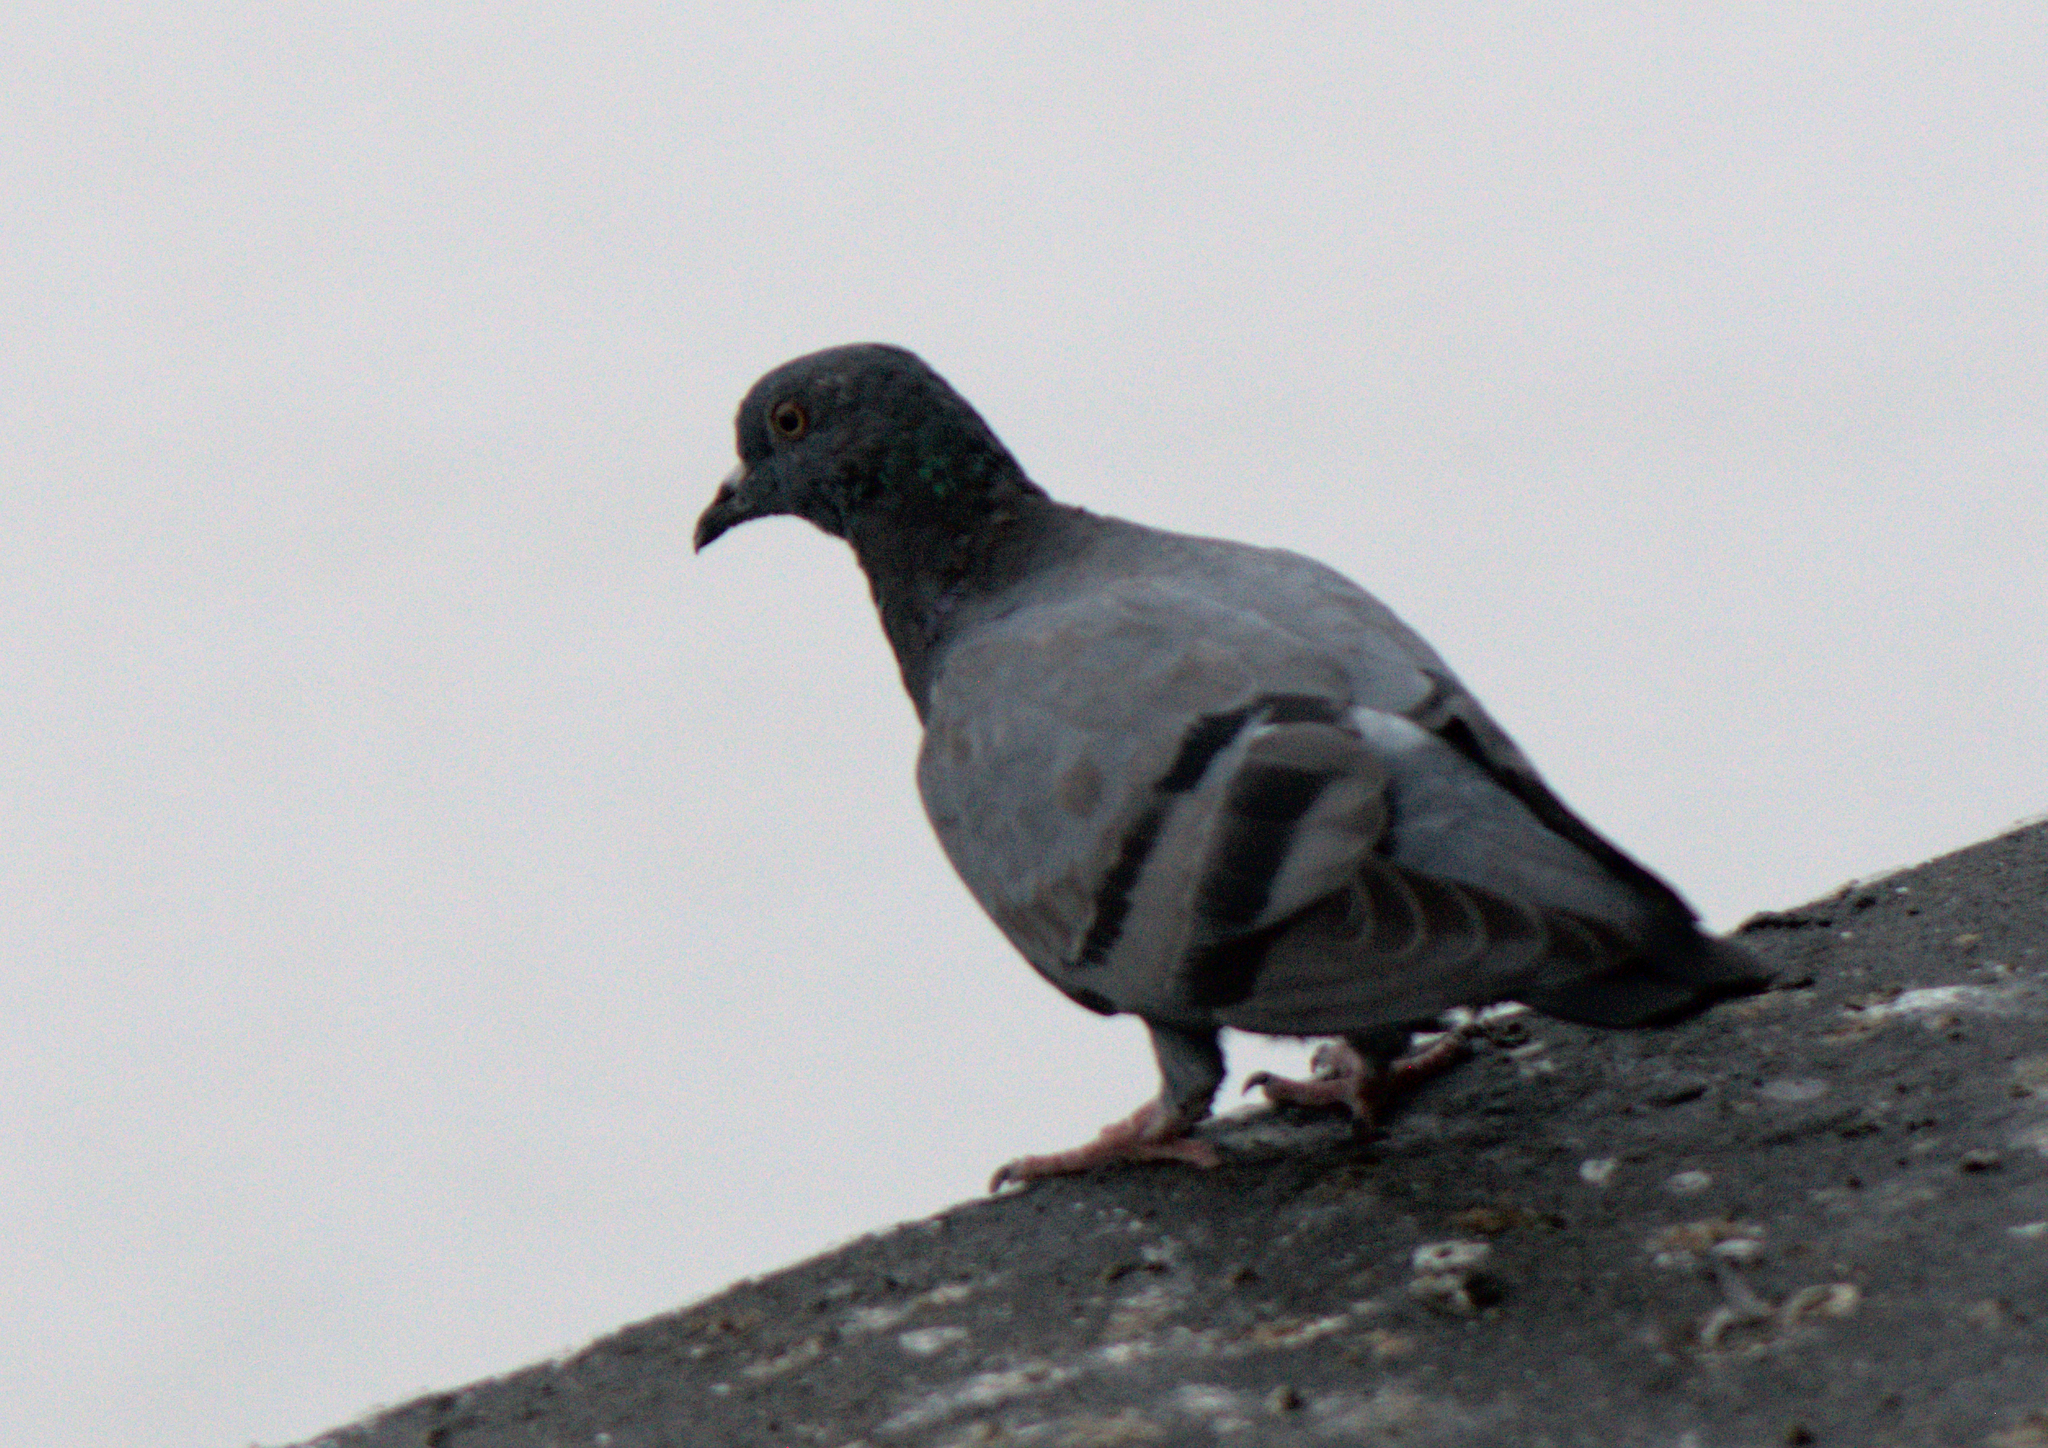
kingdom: Animalia
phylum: Chordata
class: Aves
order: Columbiformes
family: Columbidae
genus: Columba
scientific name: Columba livia
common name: Rock pigeon
